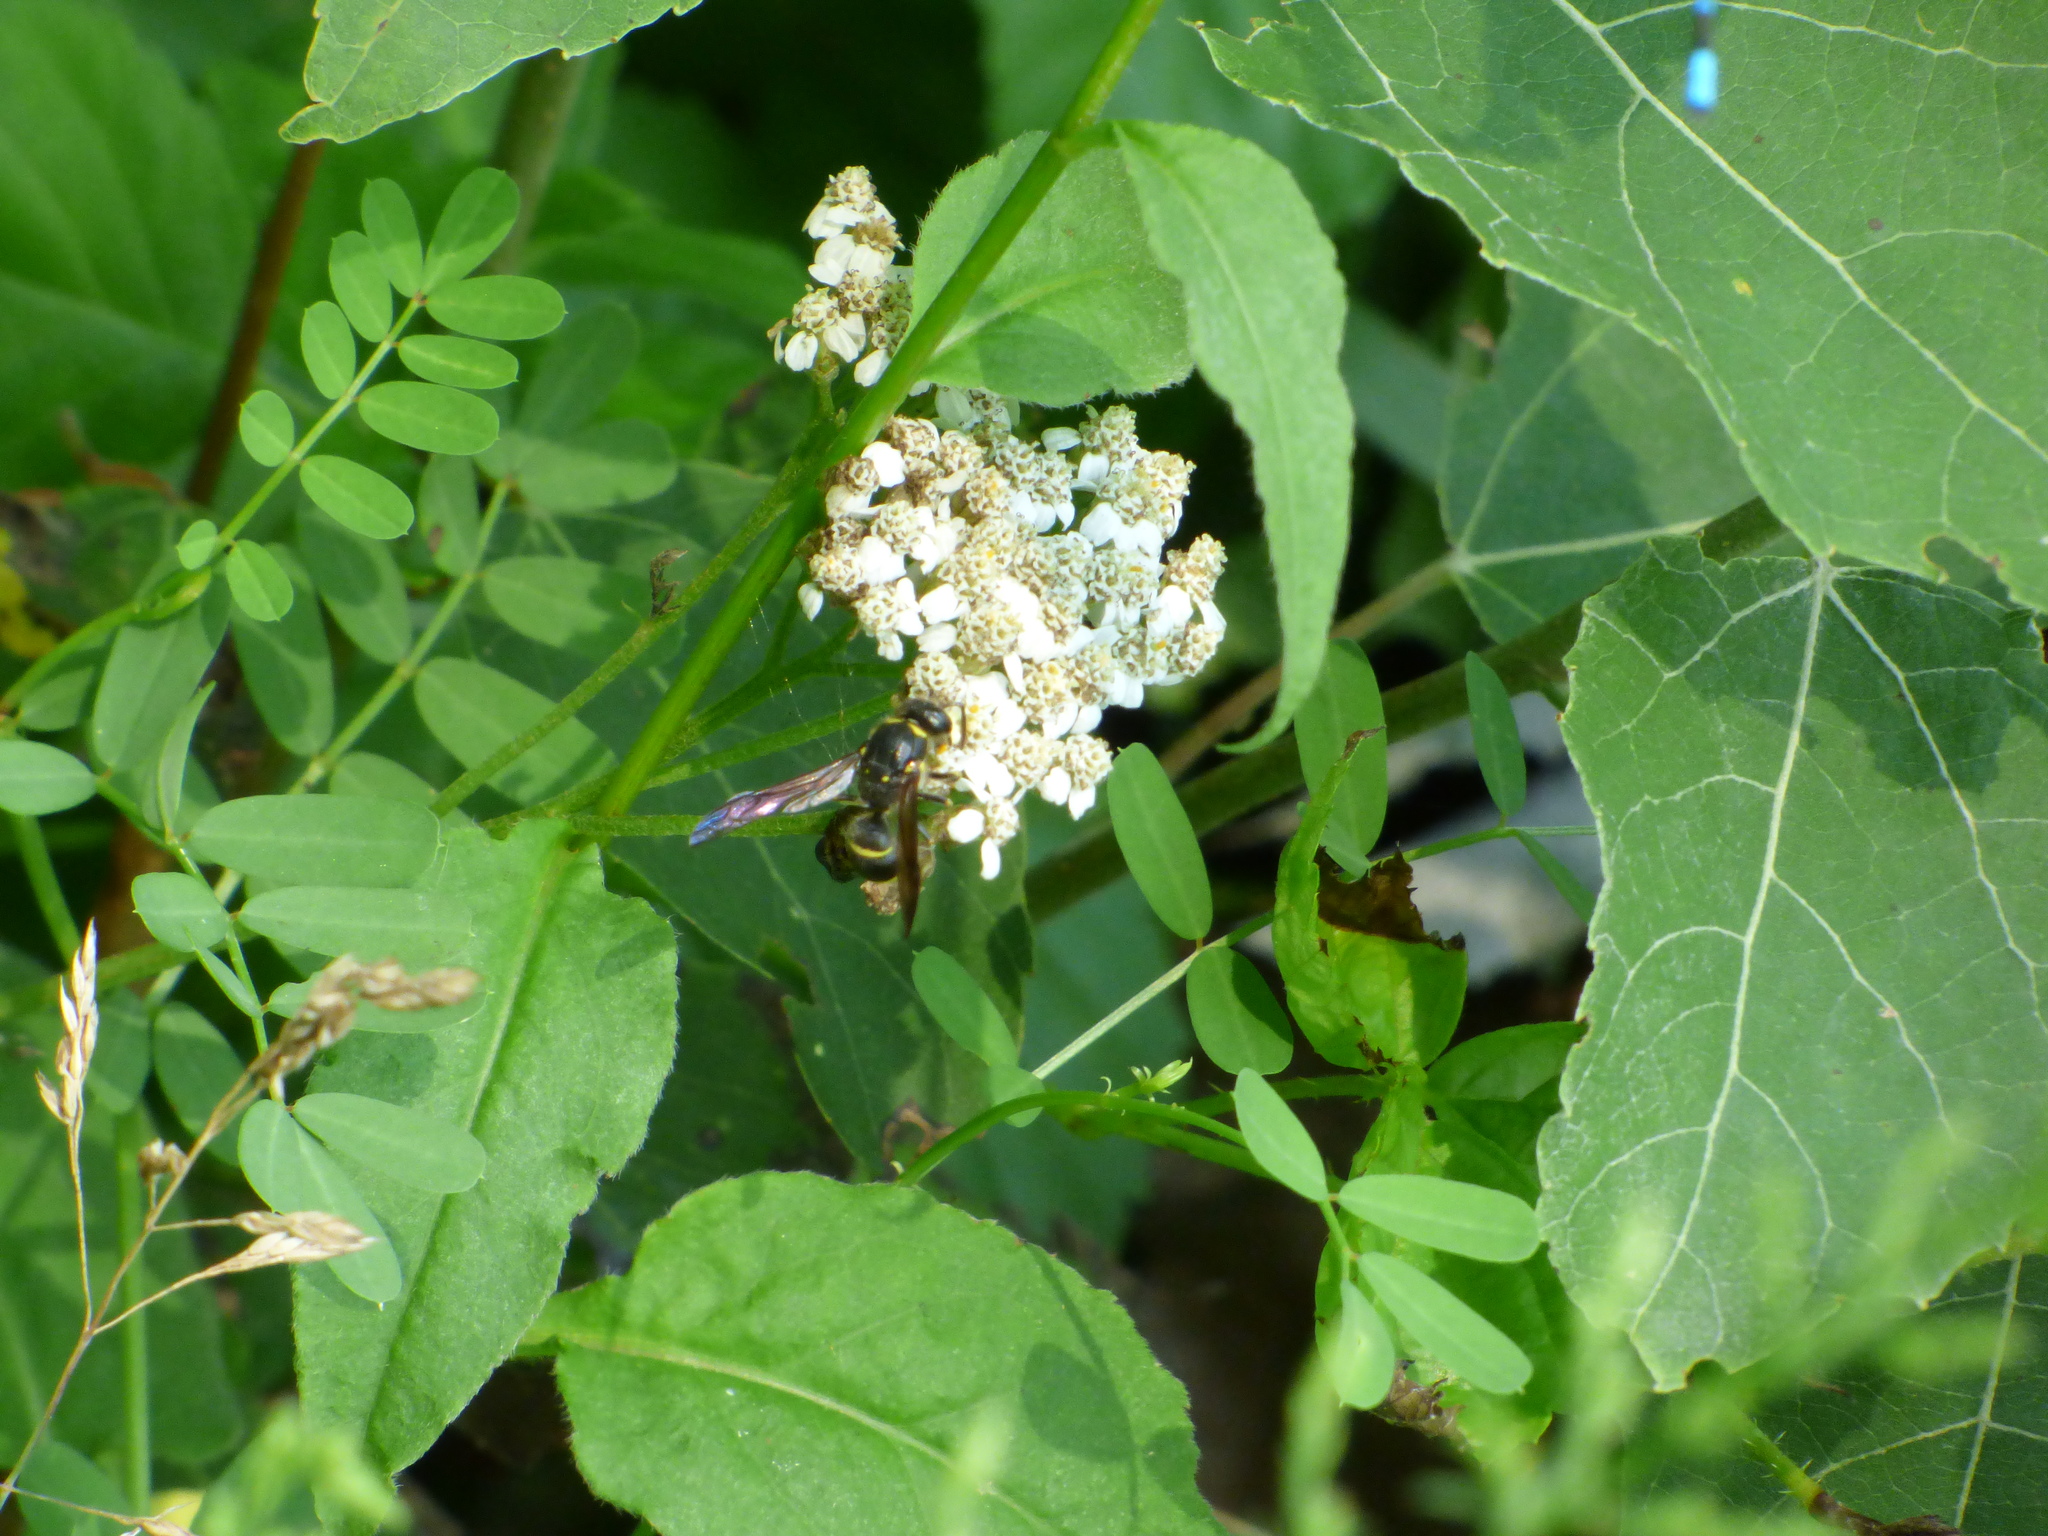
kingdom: Animalia
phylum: Arthropoda
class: Insecta
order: Hymenoptera
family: Vespidae
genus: Ancistrocerus
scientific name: Ancistrocerus
